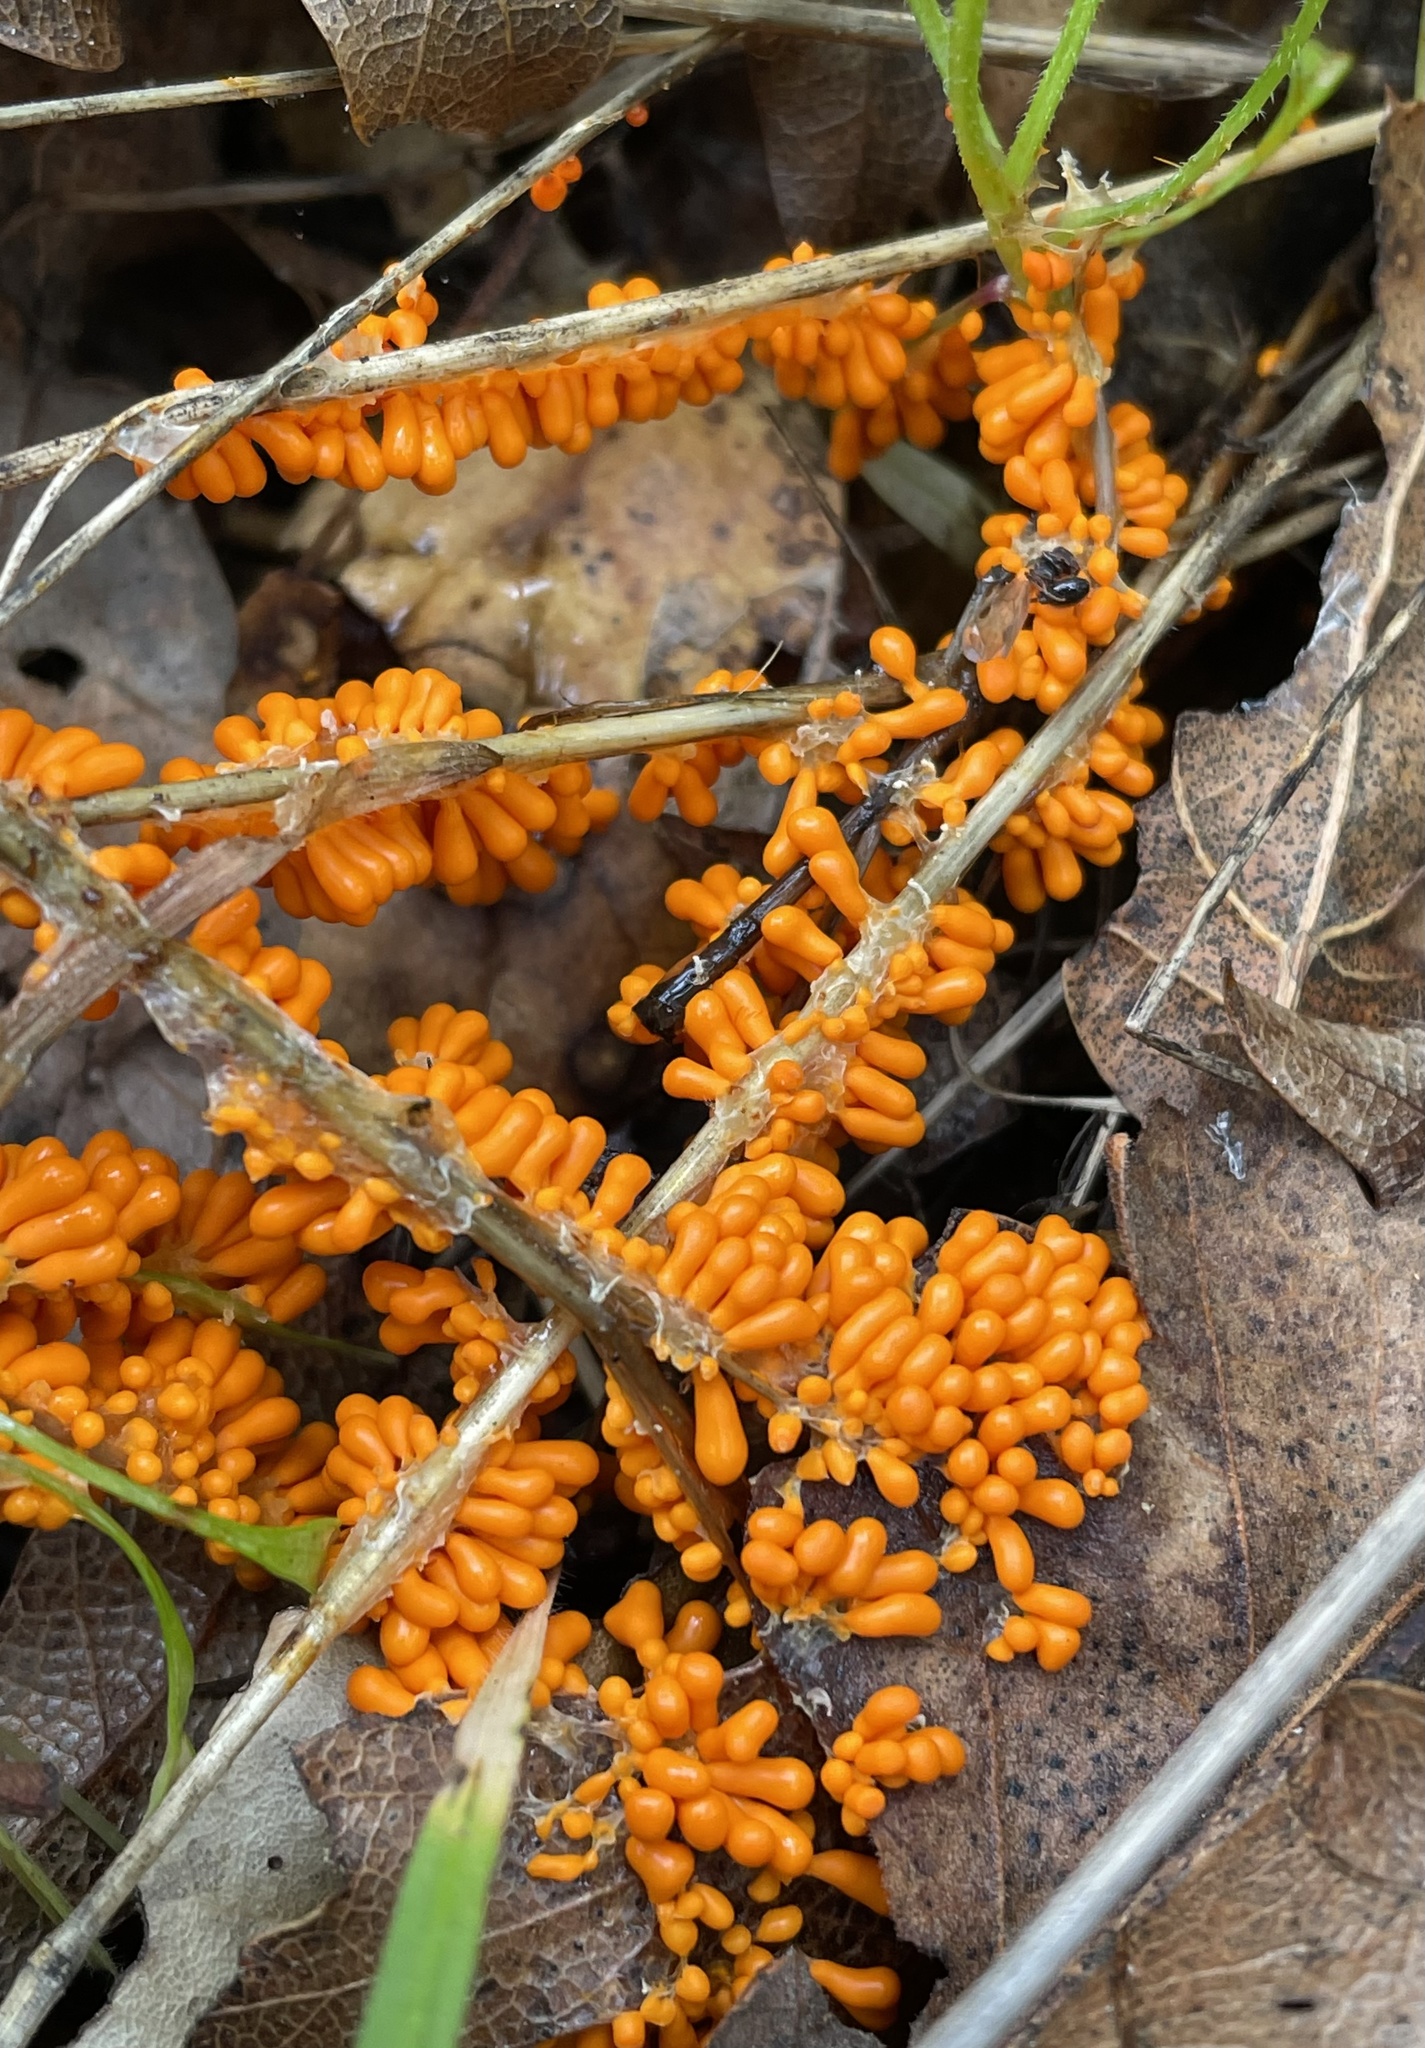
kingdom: Protozoa
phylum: Mycetozoa
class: Myxomycetes
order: Physarales
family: Physaraceae
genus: Leocarpus
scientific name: Leocarpus fragilis
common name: Insect-egg slime
